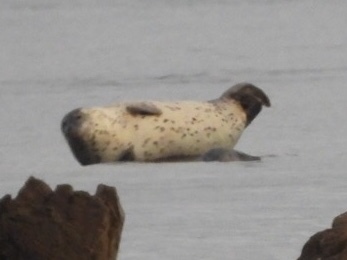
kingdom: Animalia
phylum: Chordata
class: Mammalia
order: Carnivora
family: Phocidae
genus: Phoca
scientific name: Phoca largha
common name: Spotted seal
